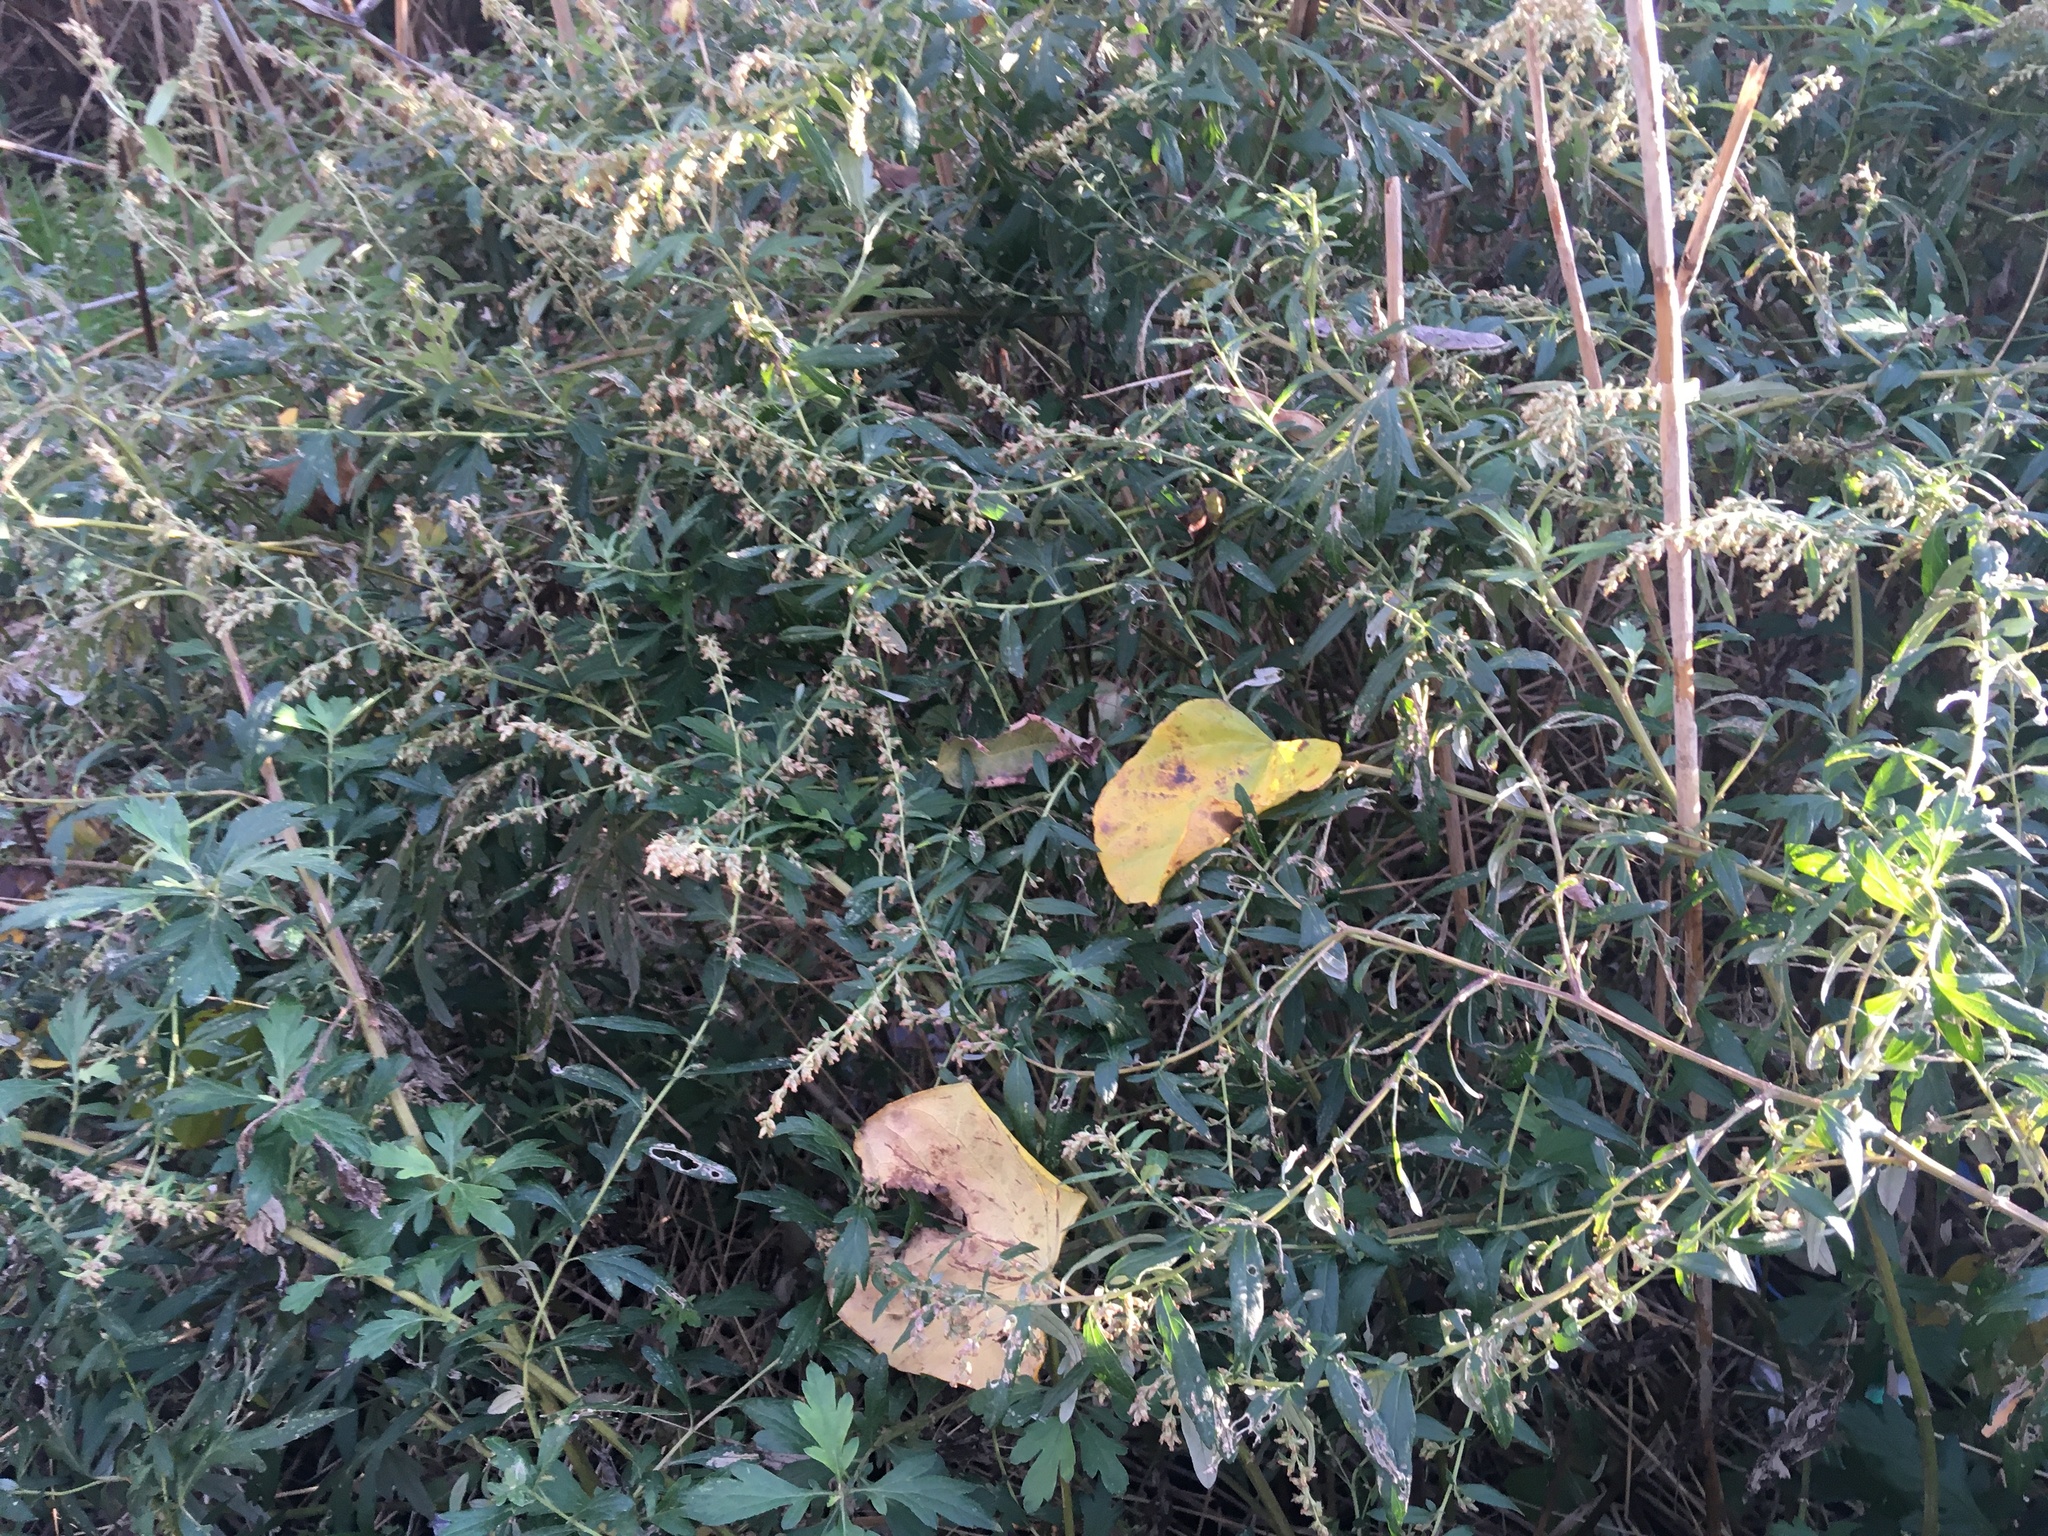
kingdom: Plantae
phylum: Tracheophyta
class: Magnoliopsida
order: Asterales
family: Asteraceae
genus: Artemisia
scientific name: Artemisia vulgaris
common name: Mugwort
